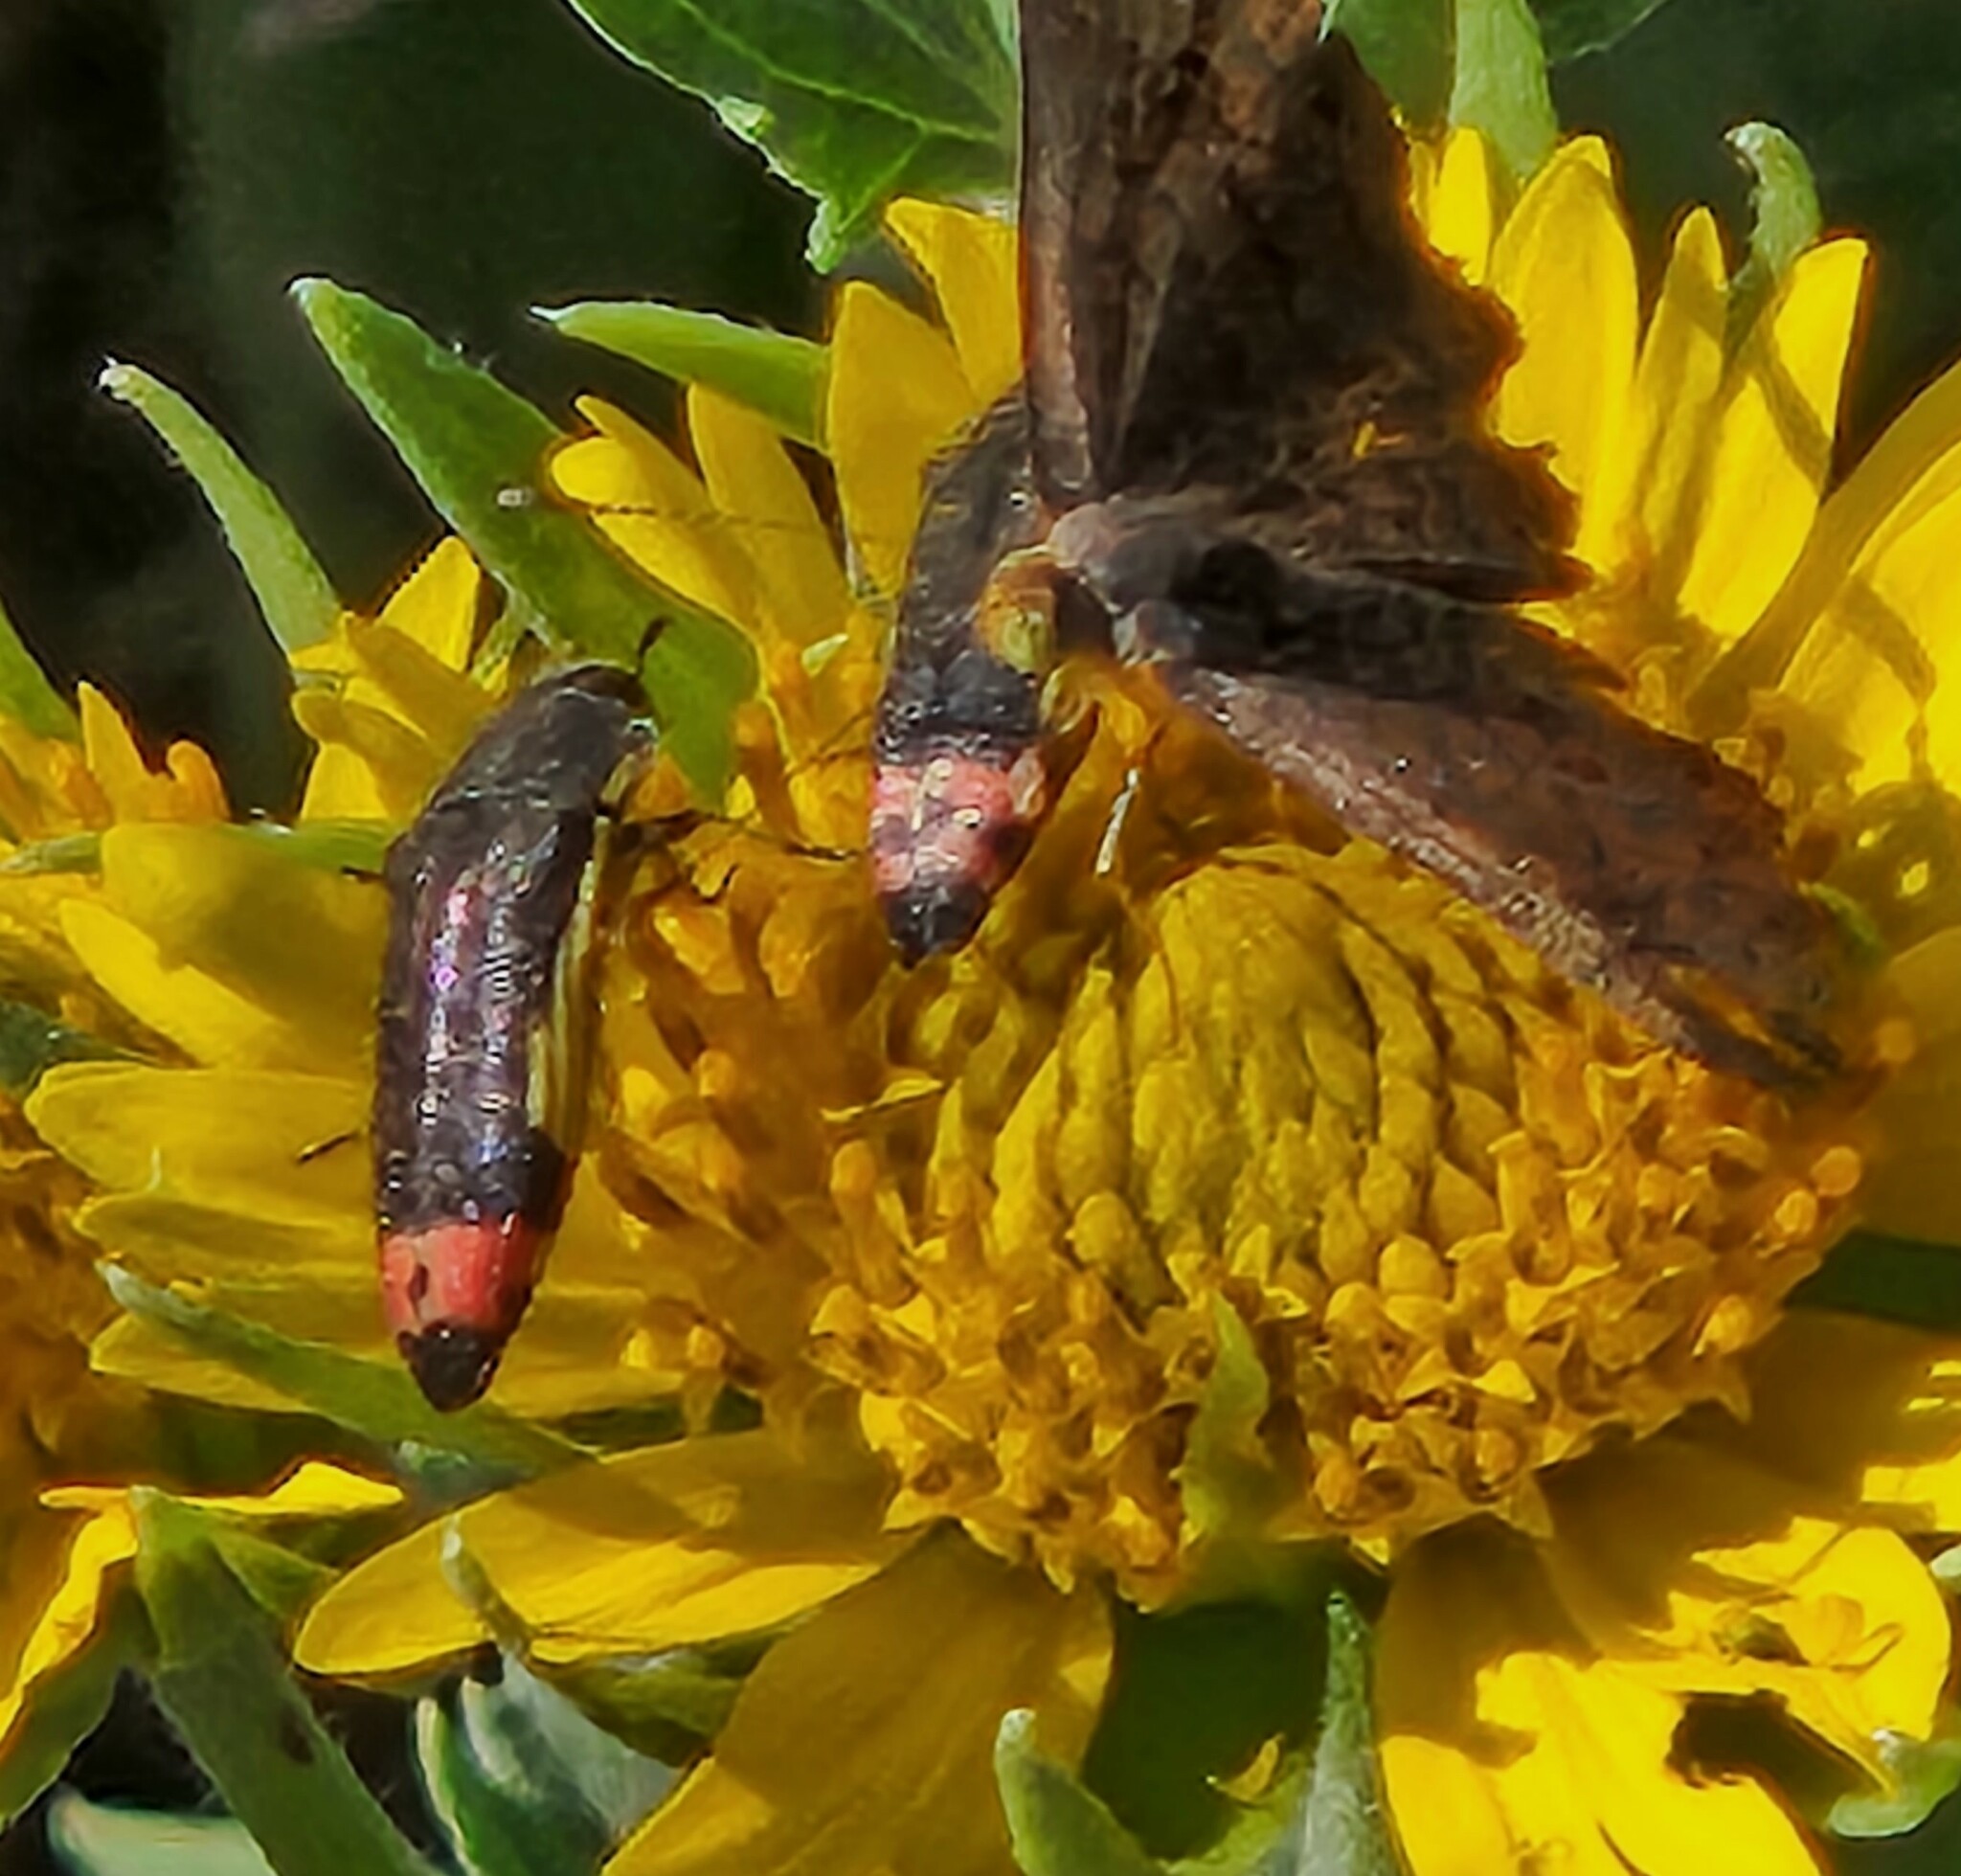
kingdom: Animalia
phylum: Arthropoda
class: Insecta
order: Coleoptera
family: Buprestidae
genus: Acmaeodera
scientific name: Acmaeodera flavomarginata
